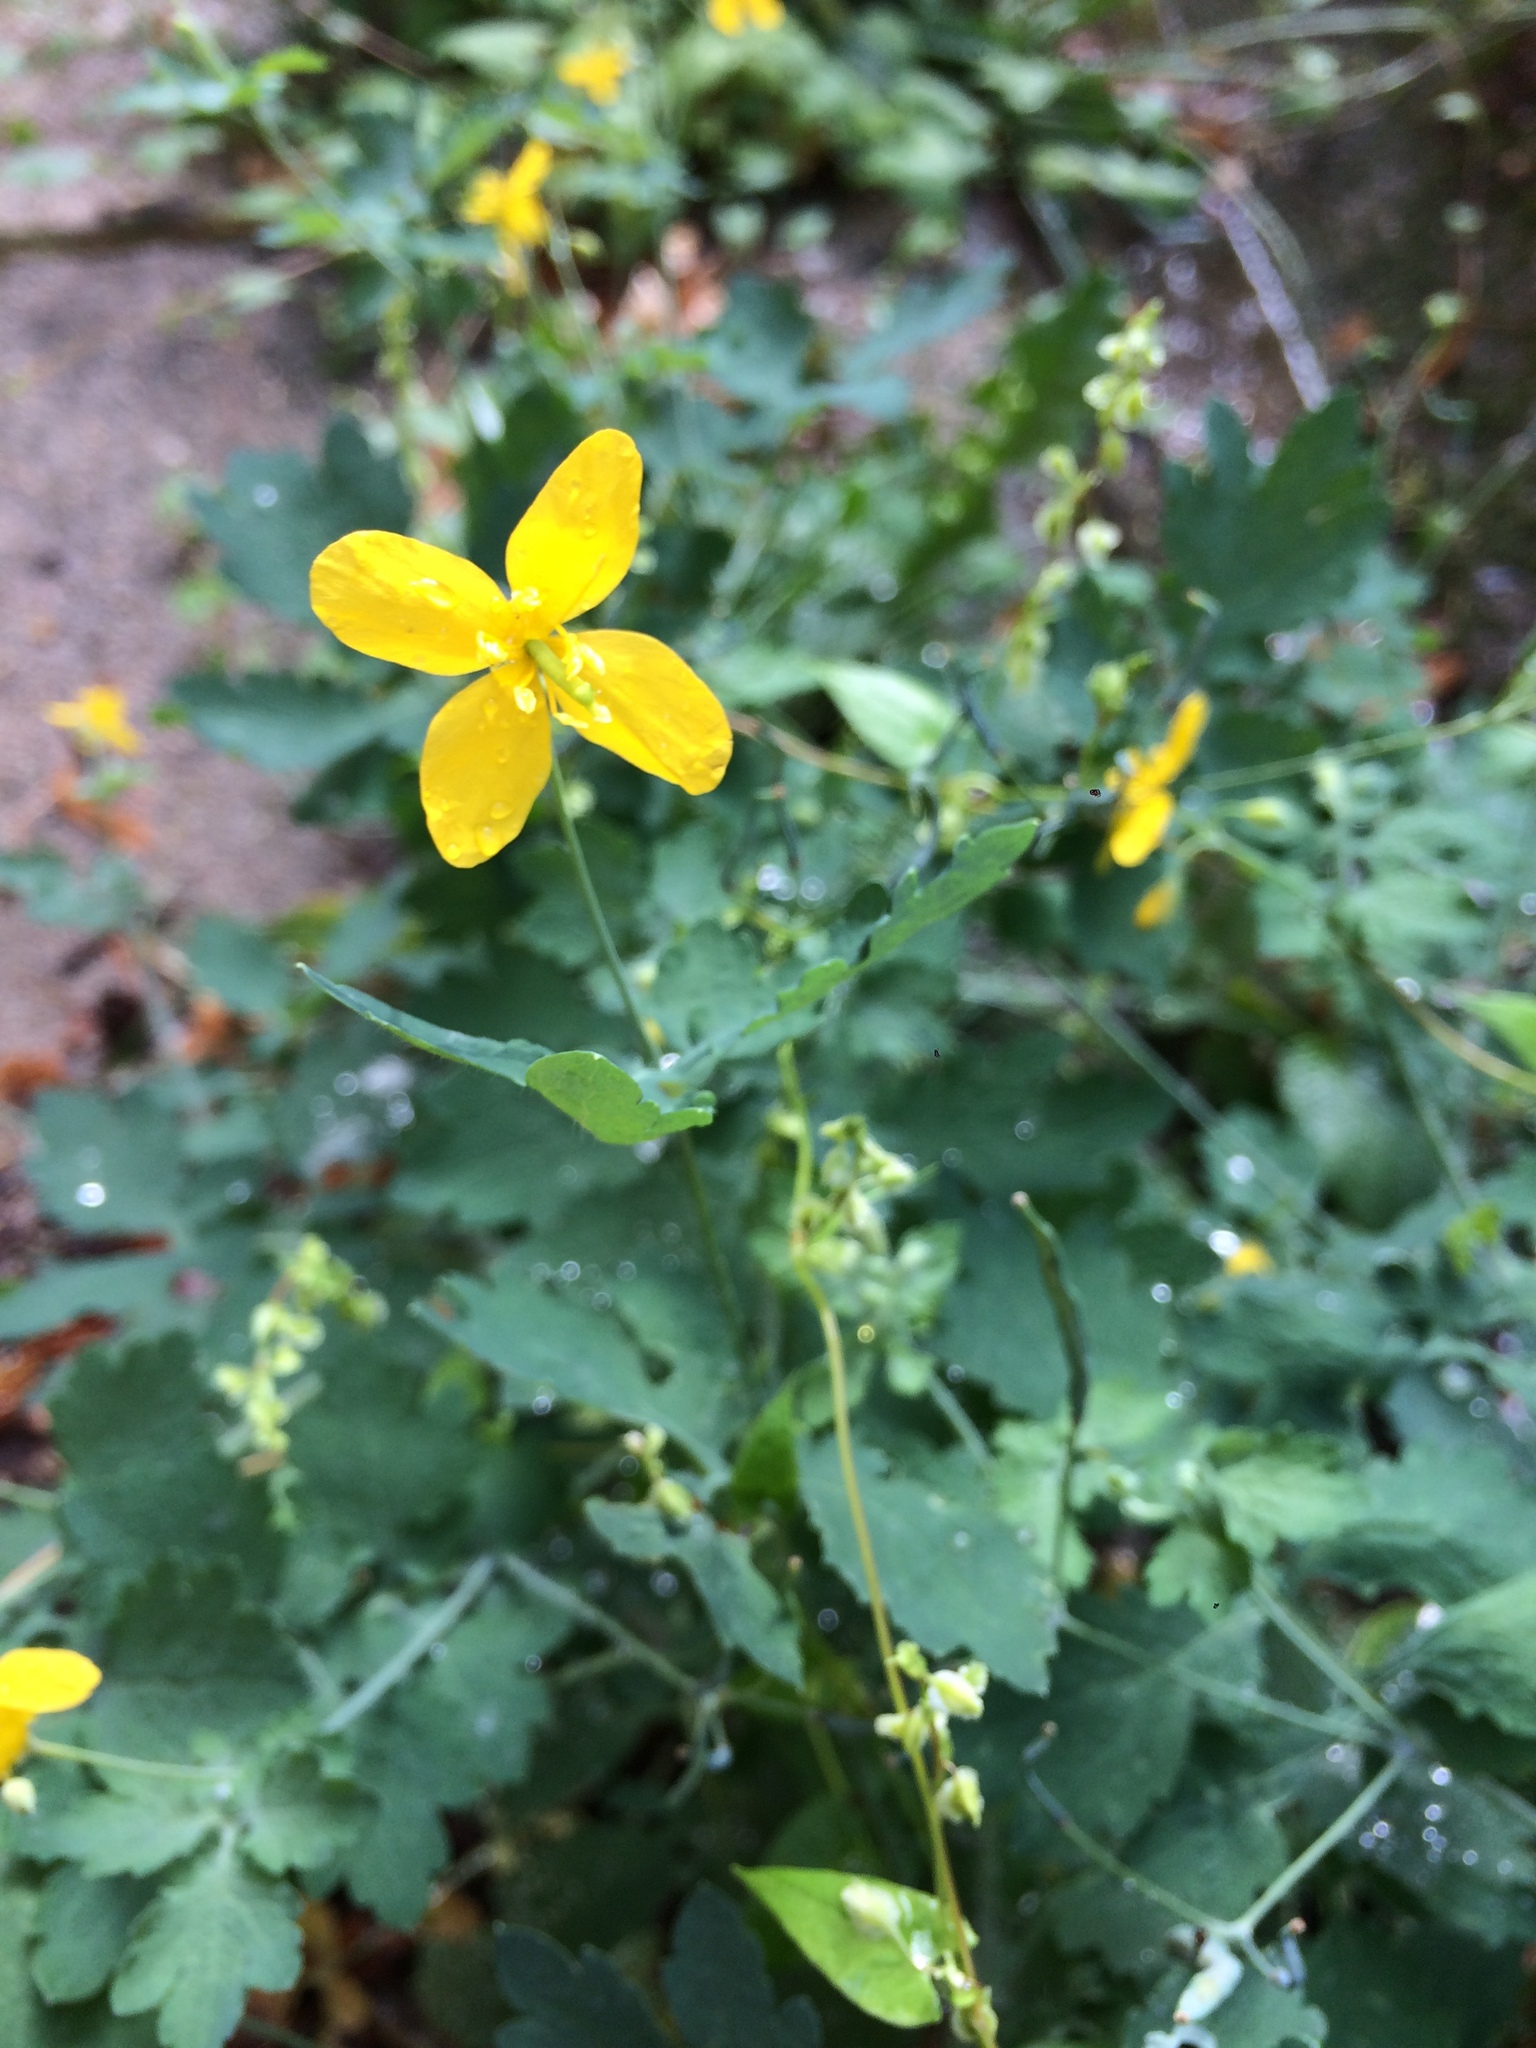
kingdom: Plantae
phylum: Tracheophyta
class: Magnoliopsida
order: Ranunculales
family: Papaveraceae
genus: Chelidonium
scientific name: Chelidonium majus
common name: Greater celandine
